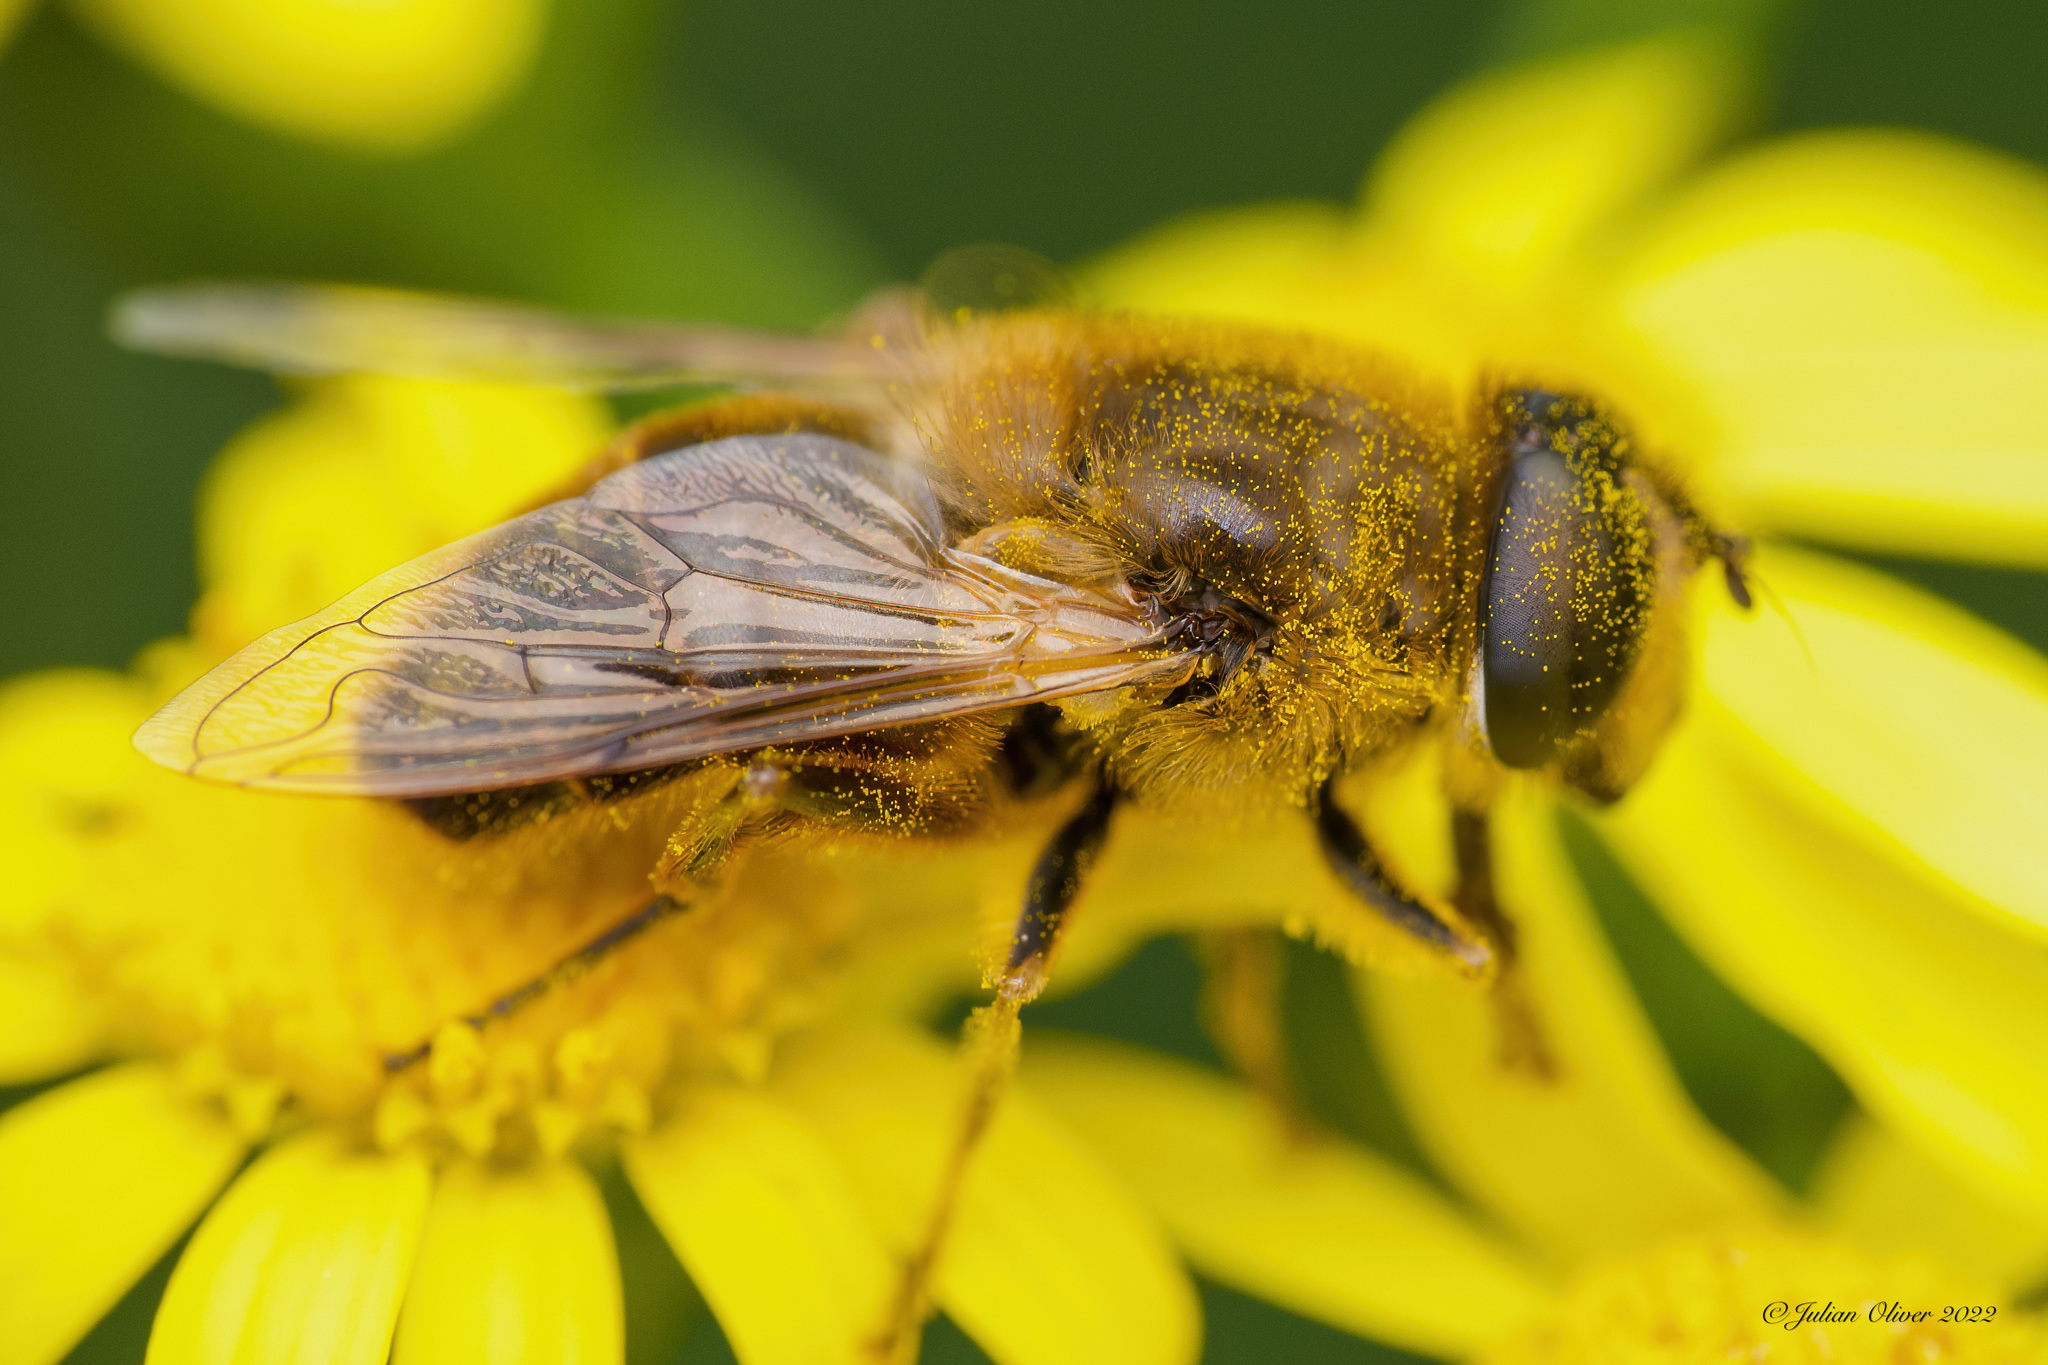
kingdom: Animalia
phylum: Arthropoda
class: Insecta
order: Diptera
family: Syrphidae
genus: Eristalis
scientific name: Eristalis tenax
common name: Drone fly
